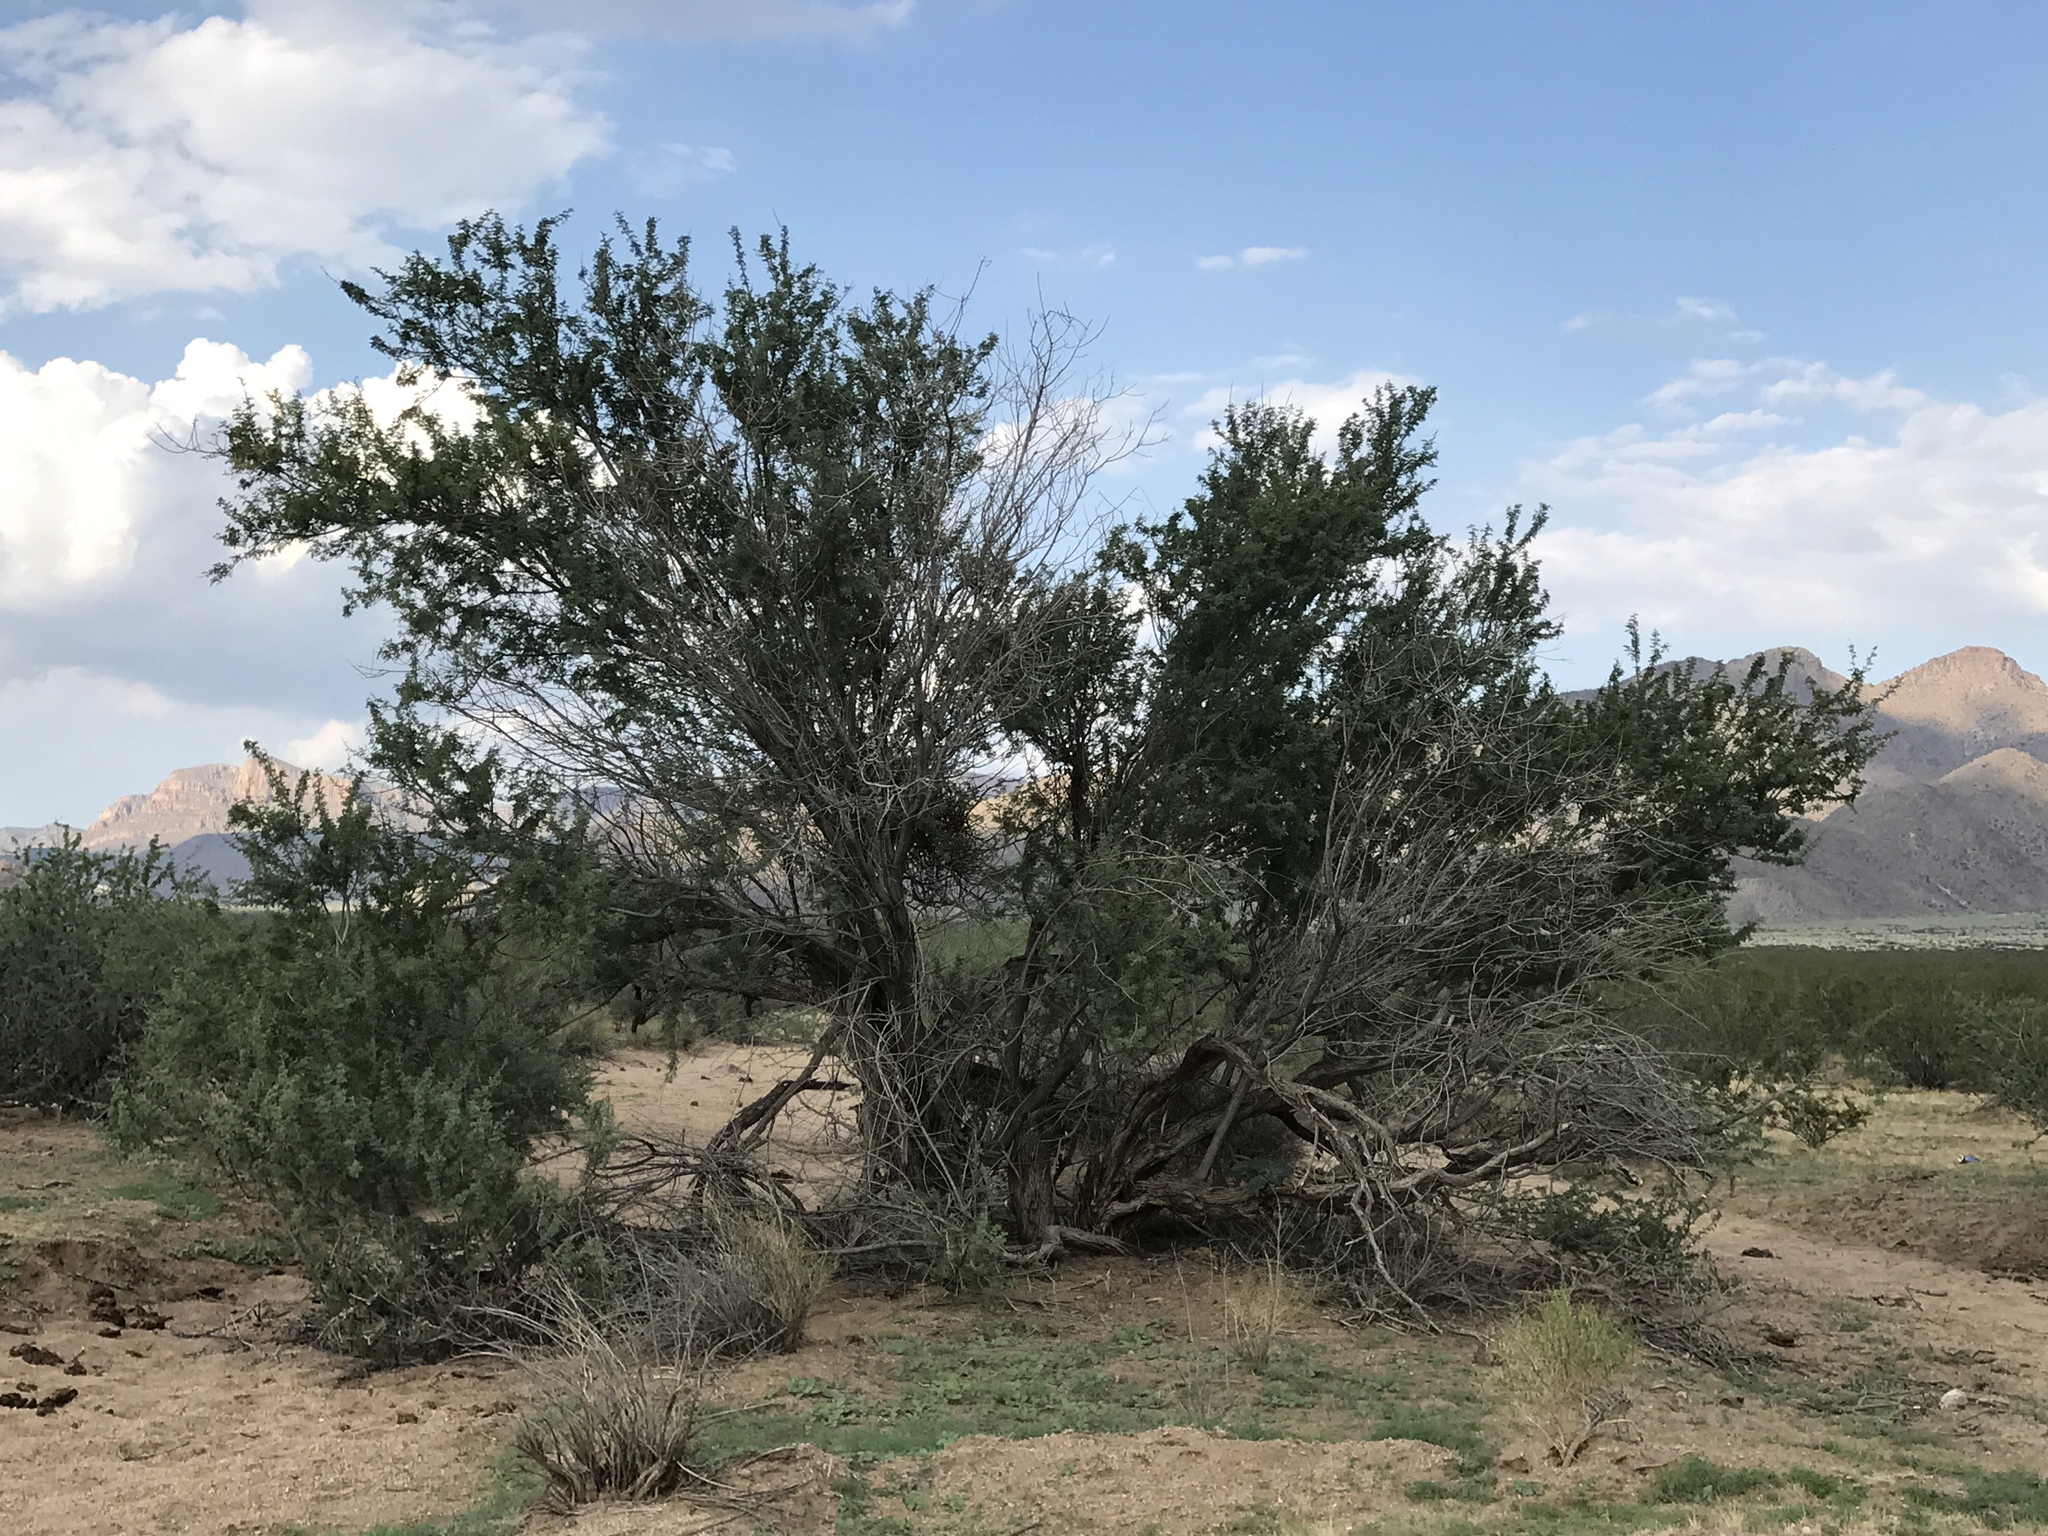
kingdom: Plantae
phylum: Tracheophyta
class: Magnoliopsida
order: Fabales
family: Fabaceae
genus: Senegalia
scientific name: Senegalia greggii
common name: Texas-mimosa
